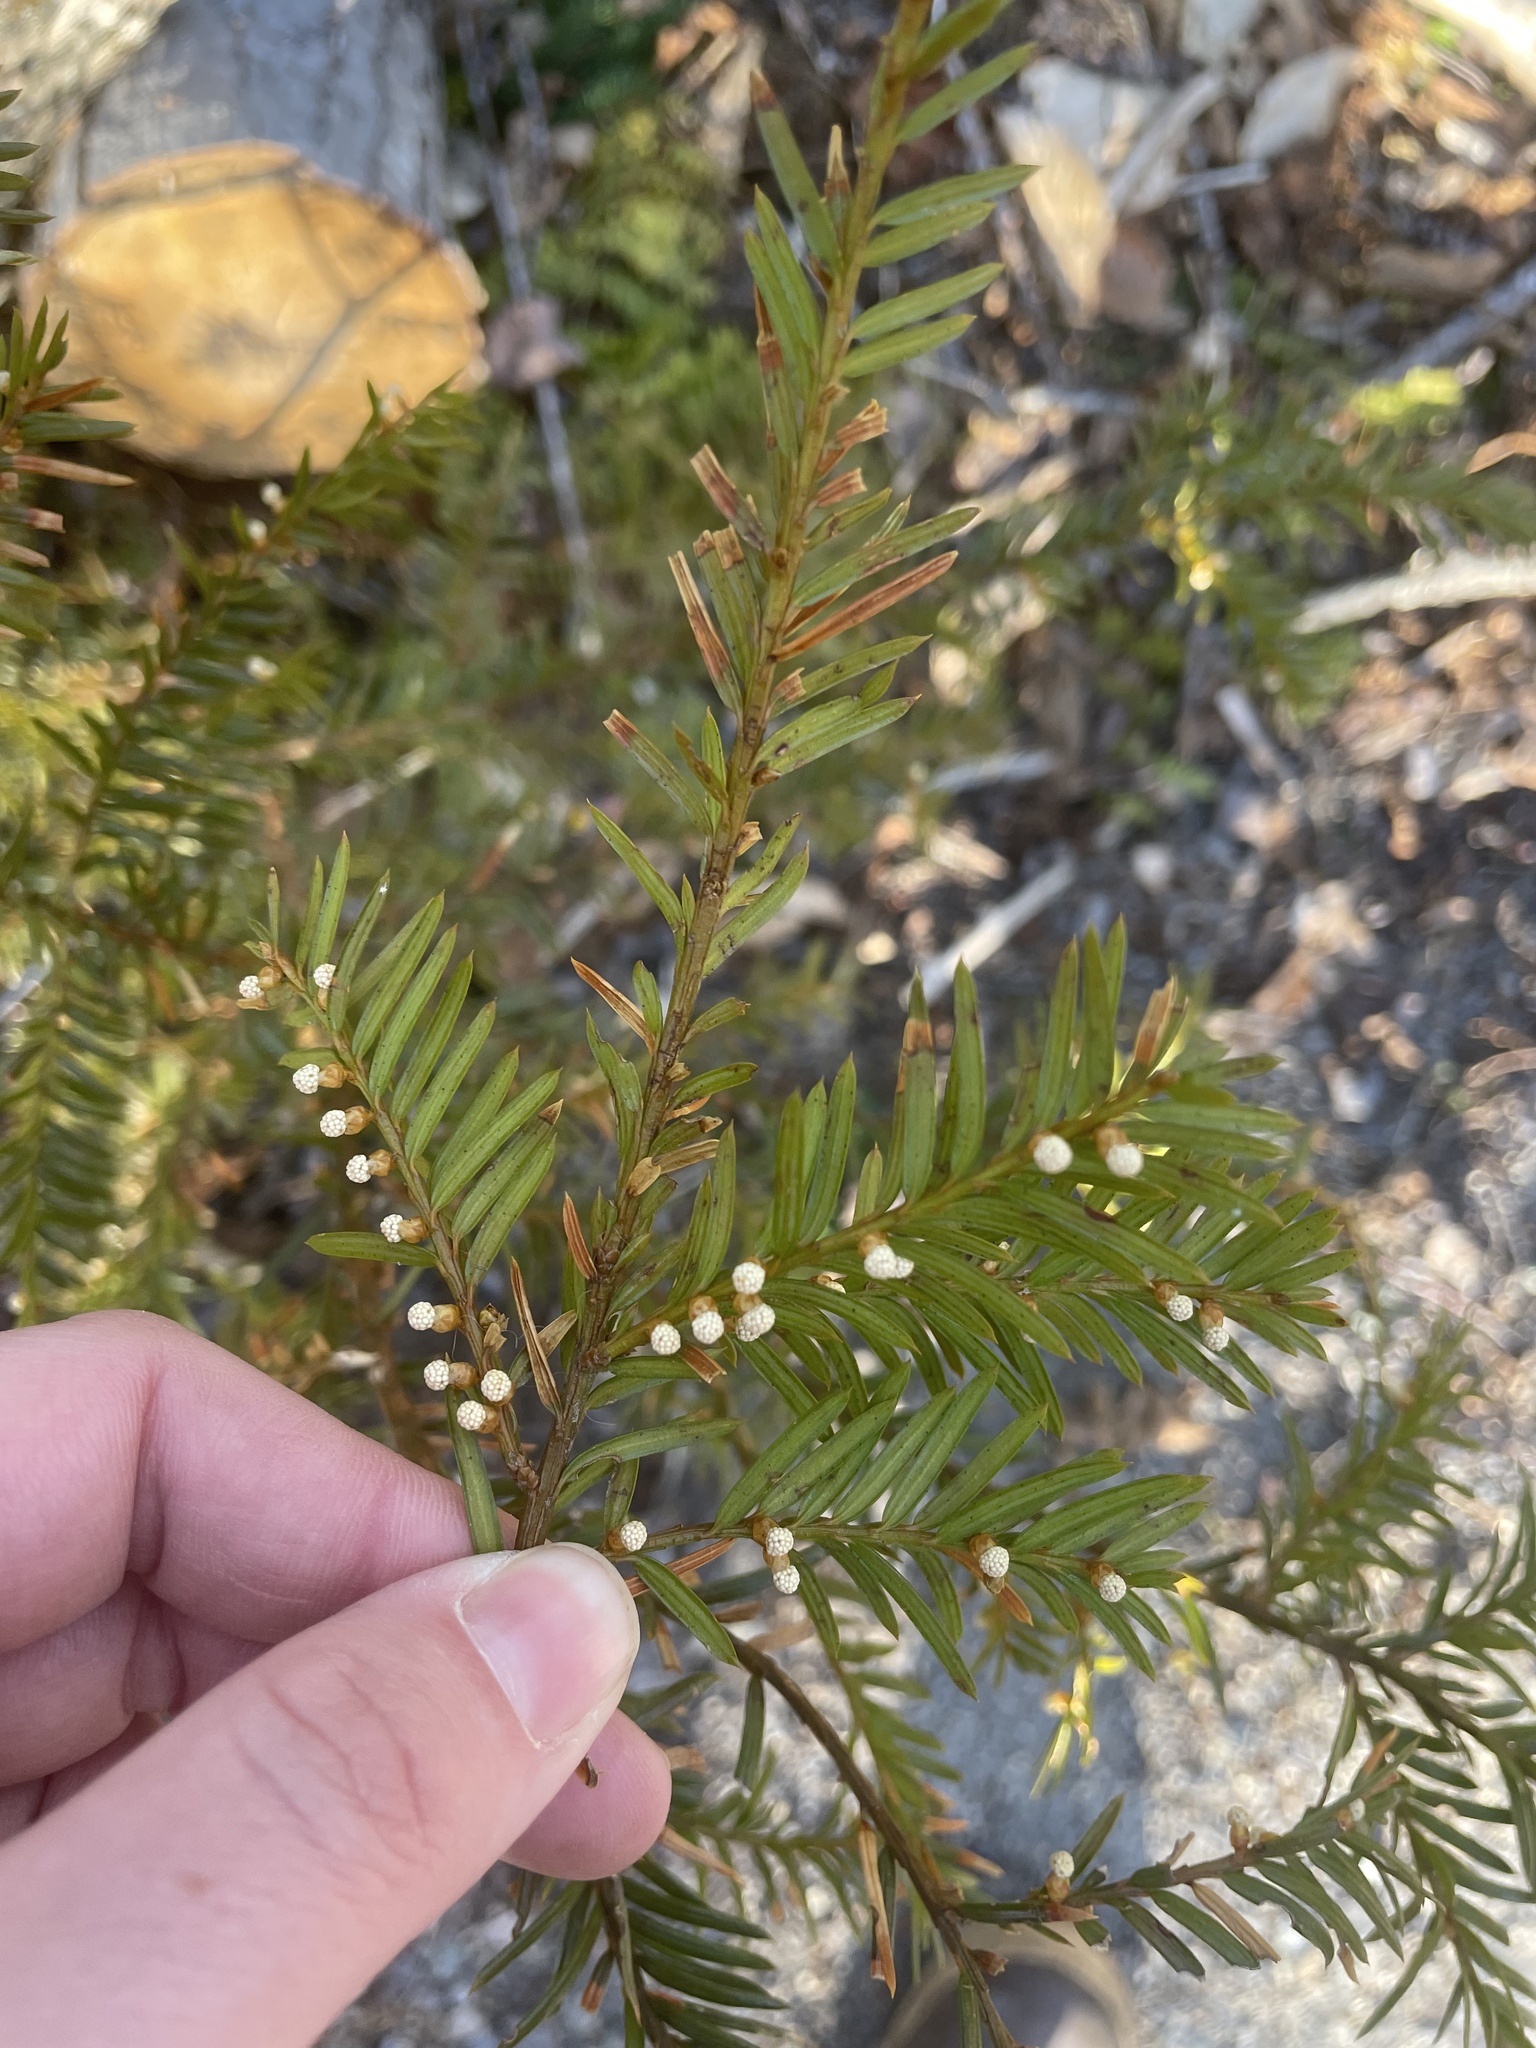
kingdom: Plantae
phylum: Tracheophyta
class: Pinopsida
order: Pinales
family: Taxaceae
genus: Taxus
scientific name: Taxus canadensis
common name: American yew
